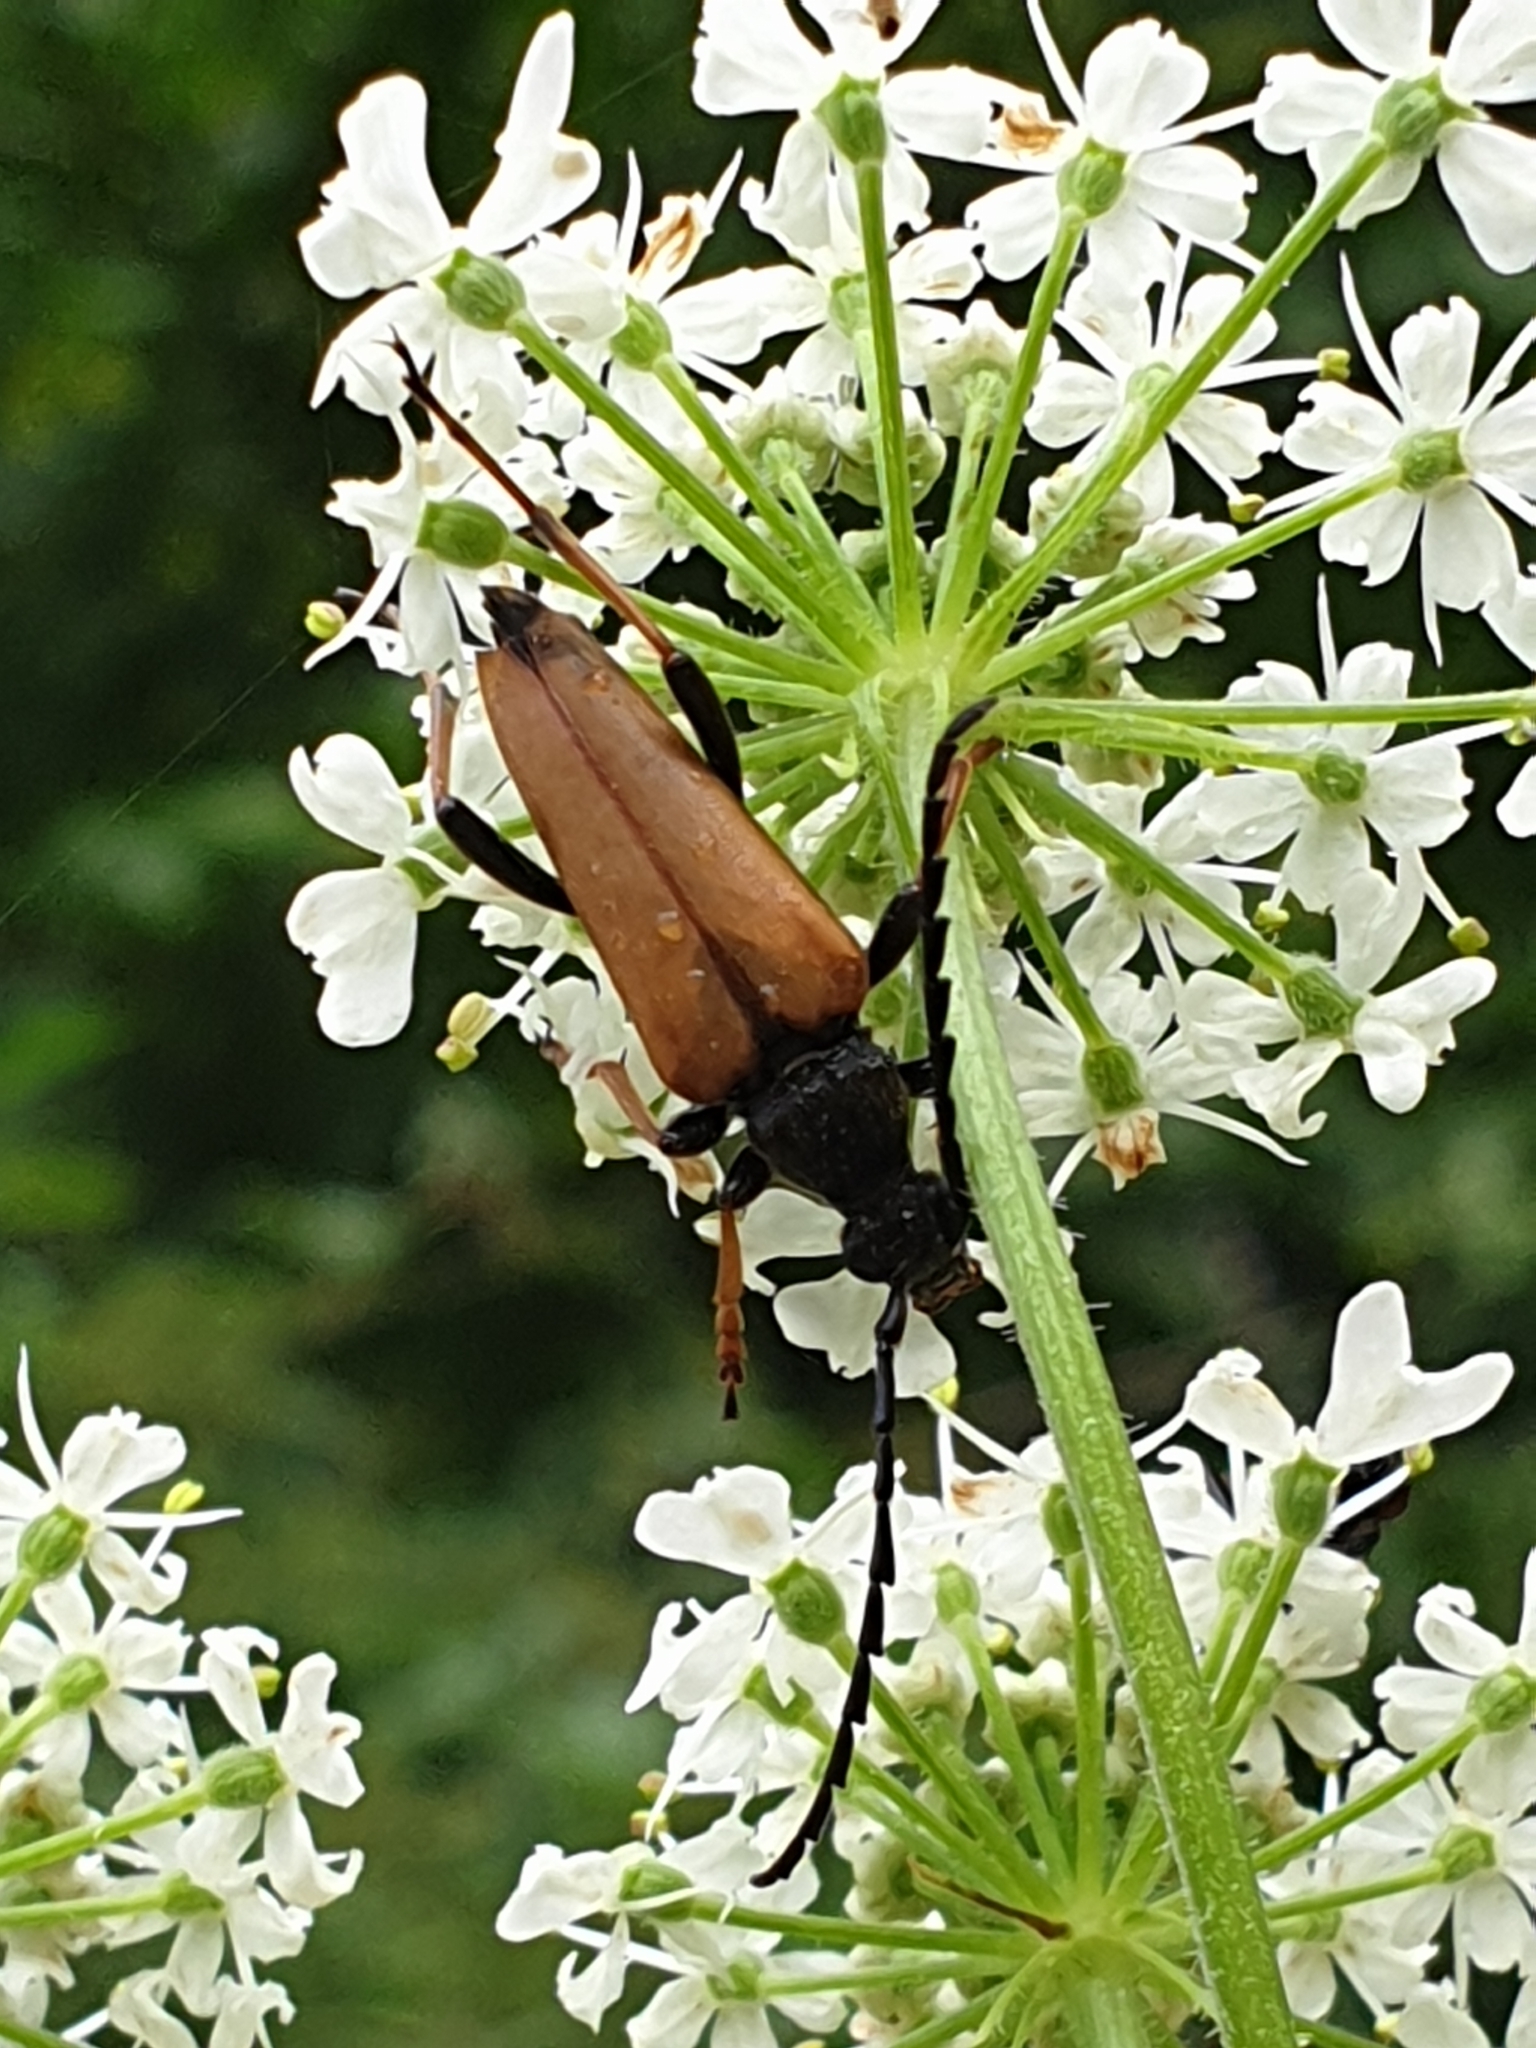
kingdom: Animalia
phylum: Arthropoda
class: Insecta
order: Coleoptera
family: Cerambycidae
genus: Stictoleptura
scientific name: Stictoleptura rubra
